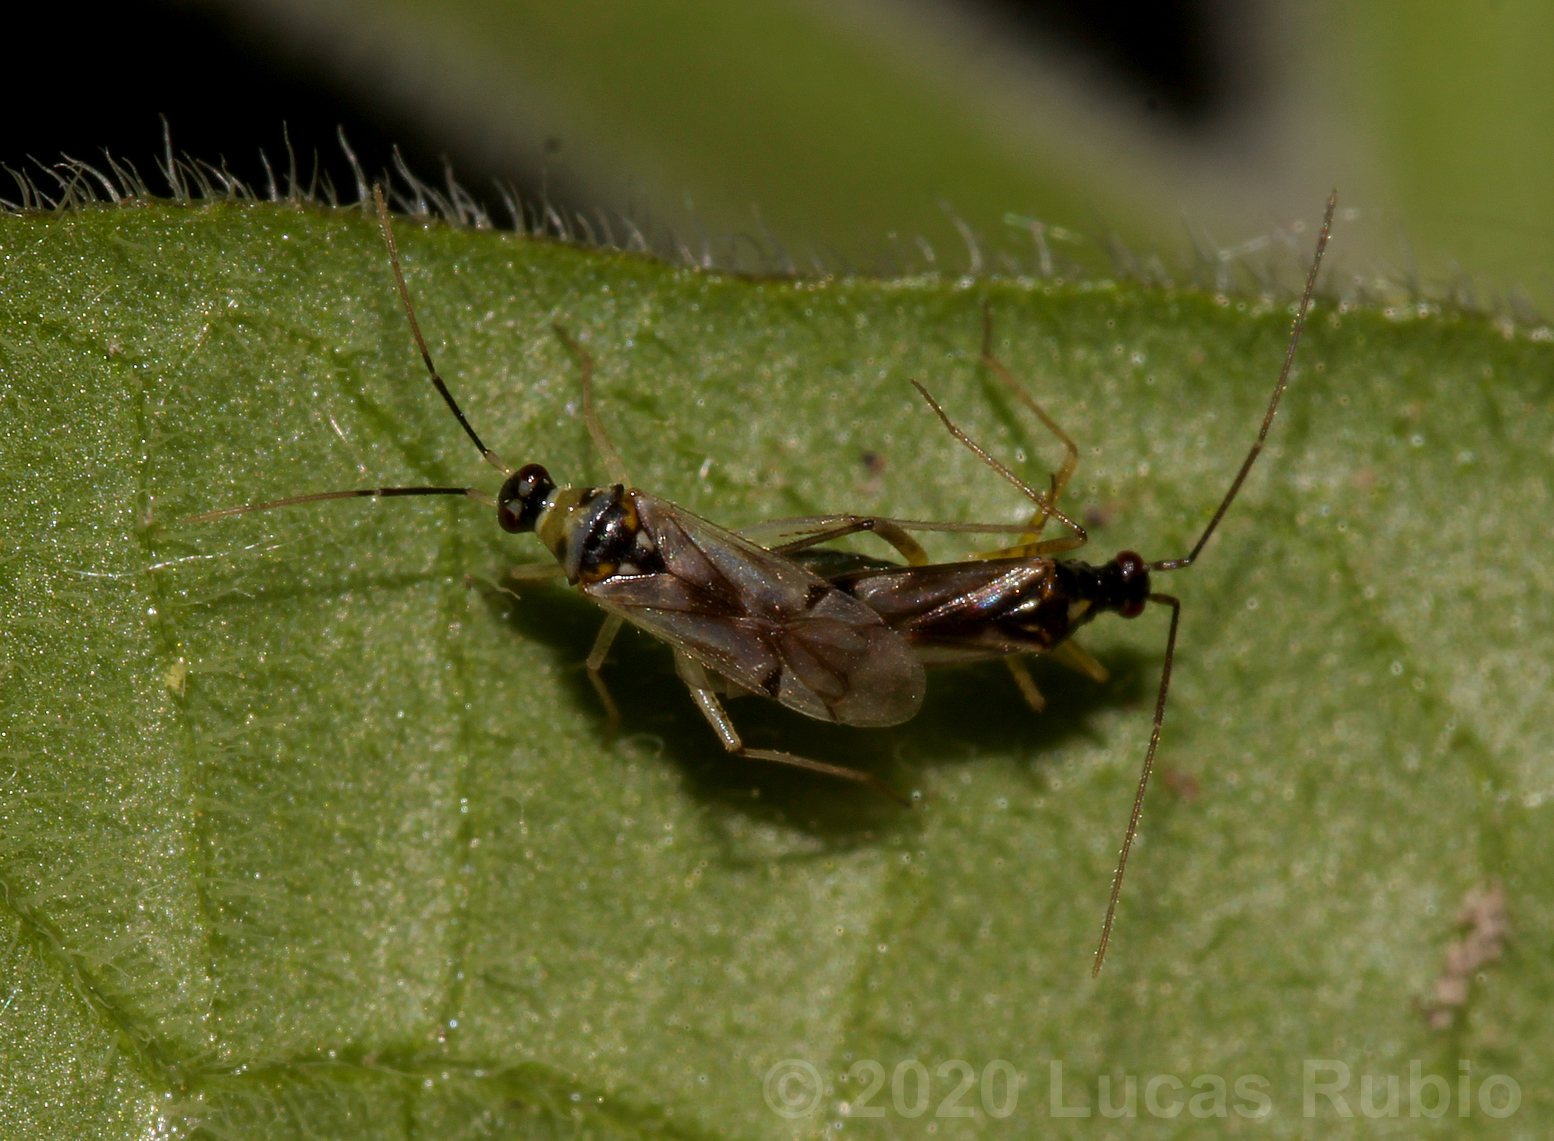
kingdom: Animalia
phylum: Arthropoda
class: Insecta
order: Hemiptera
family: Miridae
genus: Tupiocoris
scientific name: Tupiocoris cucurbitaceus
